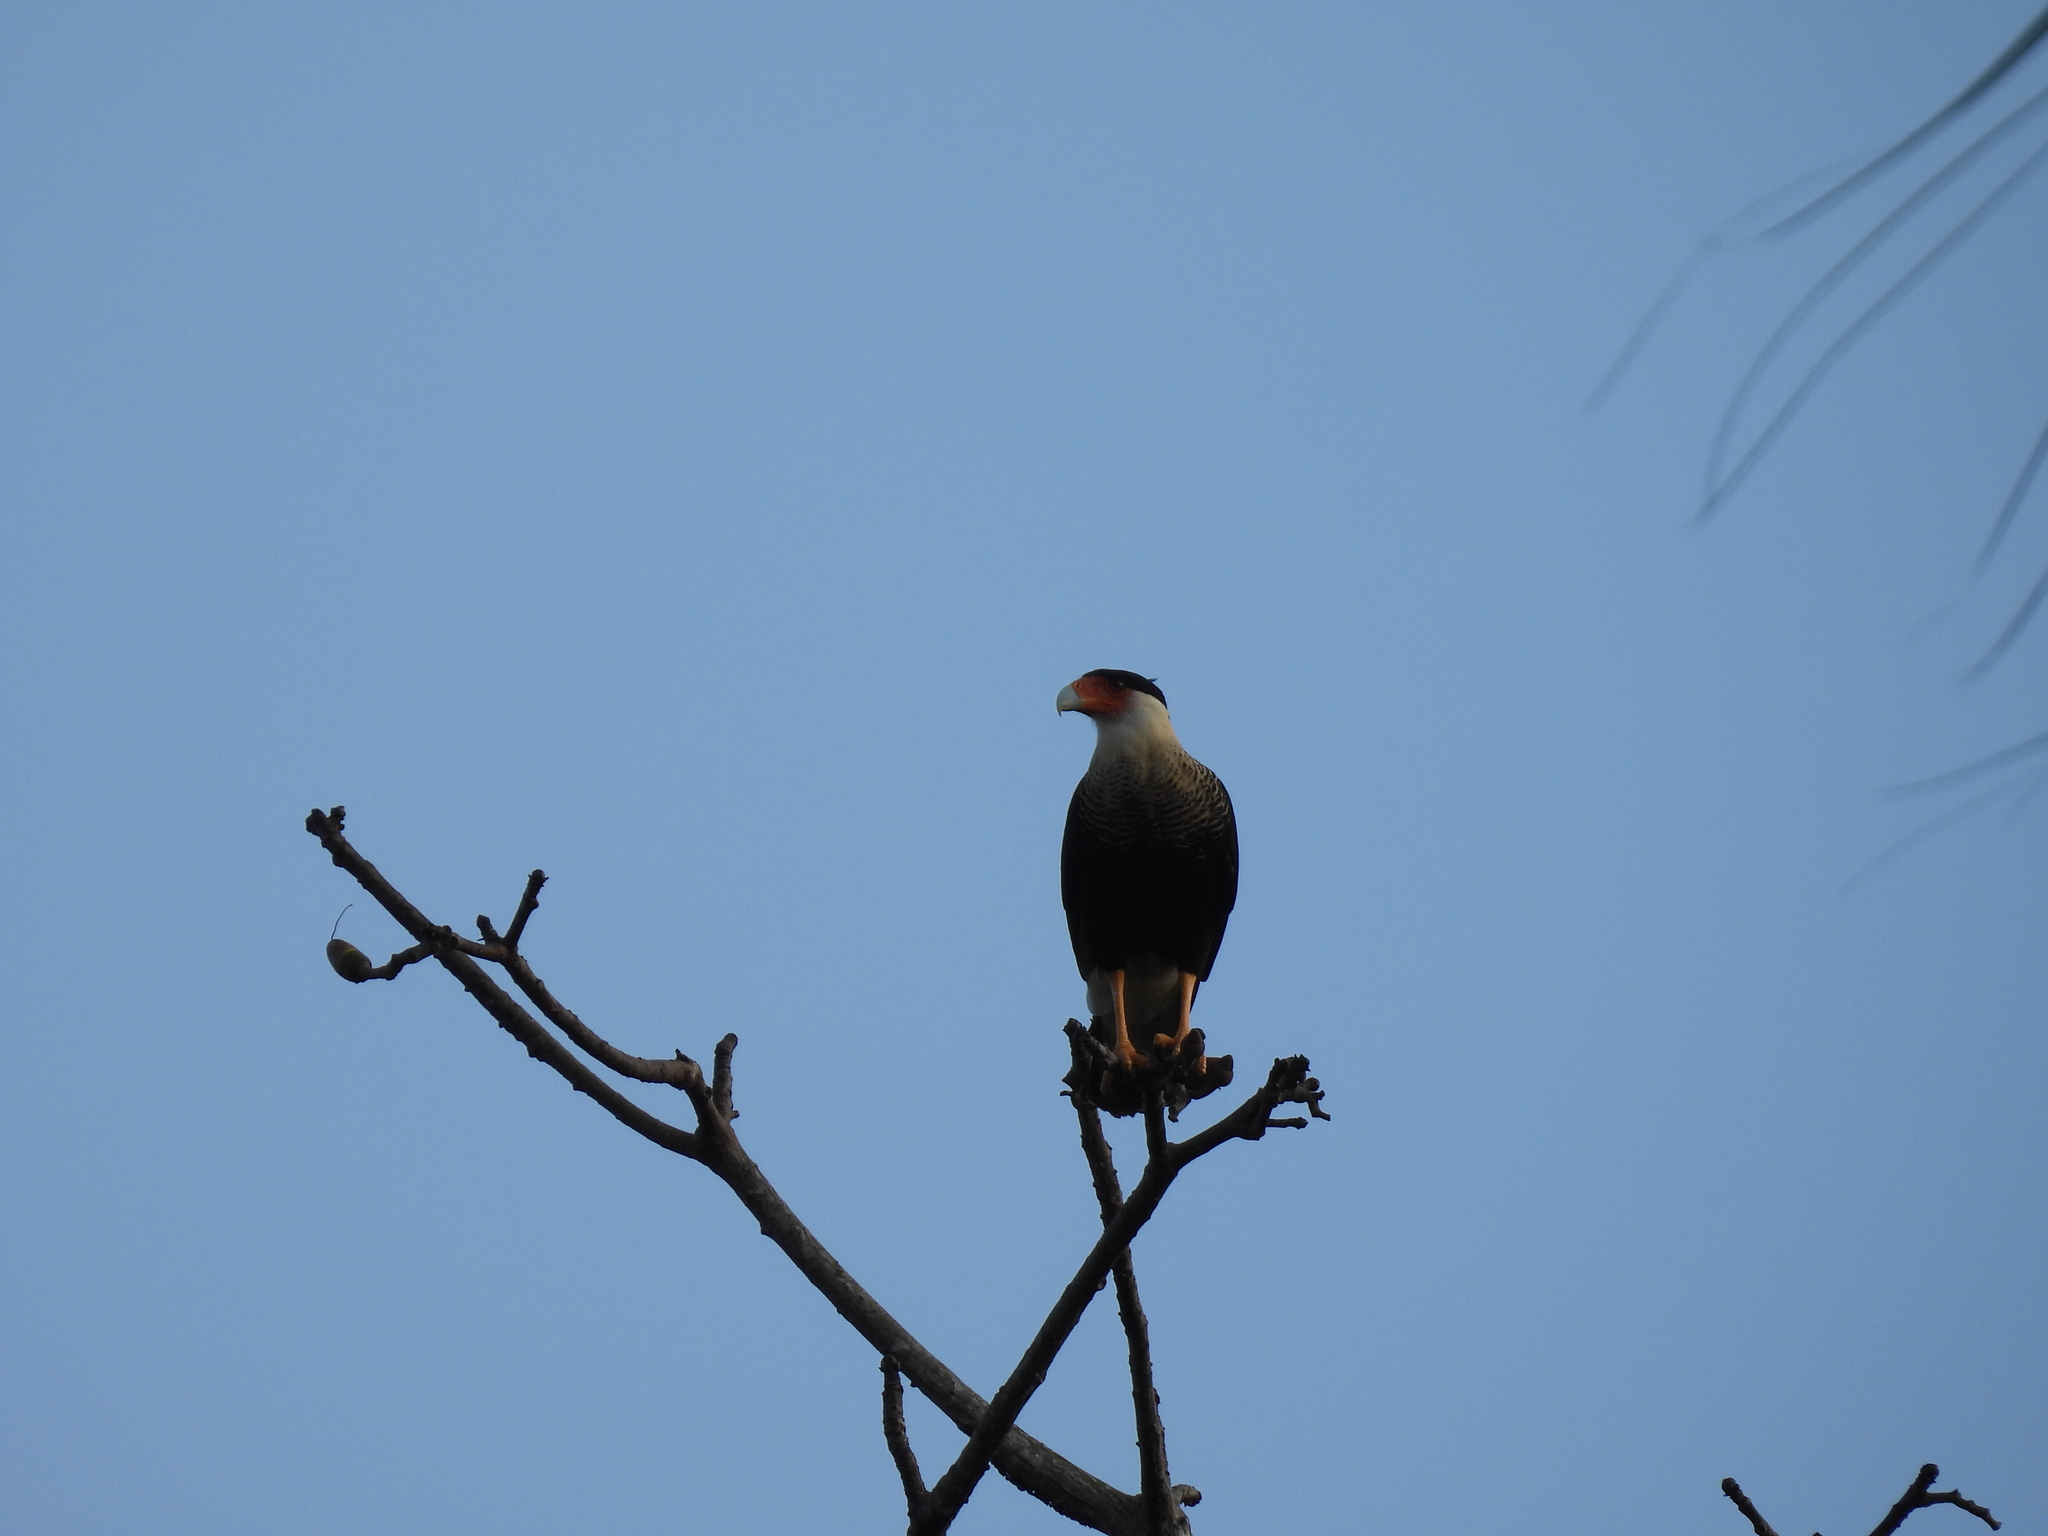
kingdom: Animalia
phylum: Chordata
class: Aves
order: Falconiformes
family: Falconidae
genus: Caracara
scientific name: Caracara plancus
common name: Southern caracara
